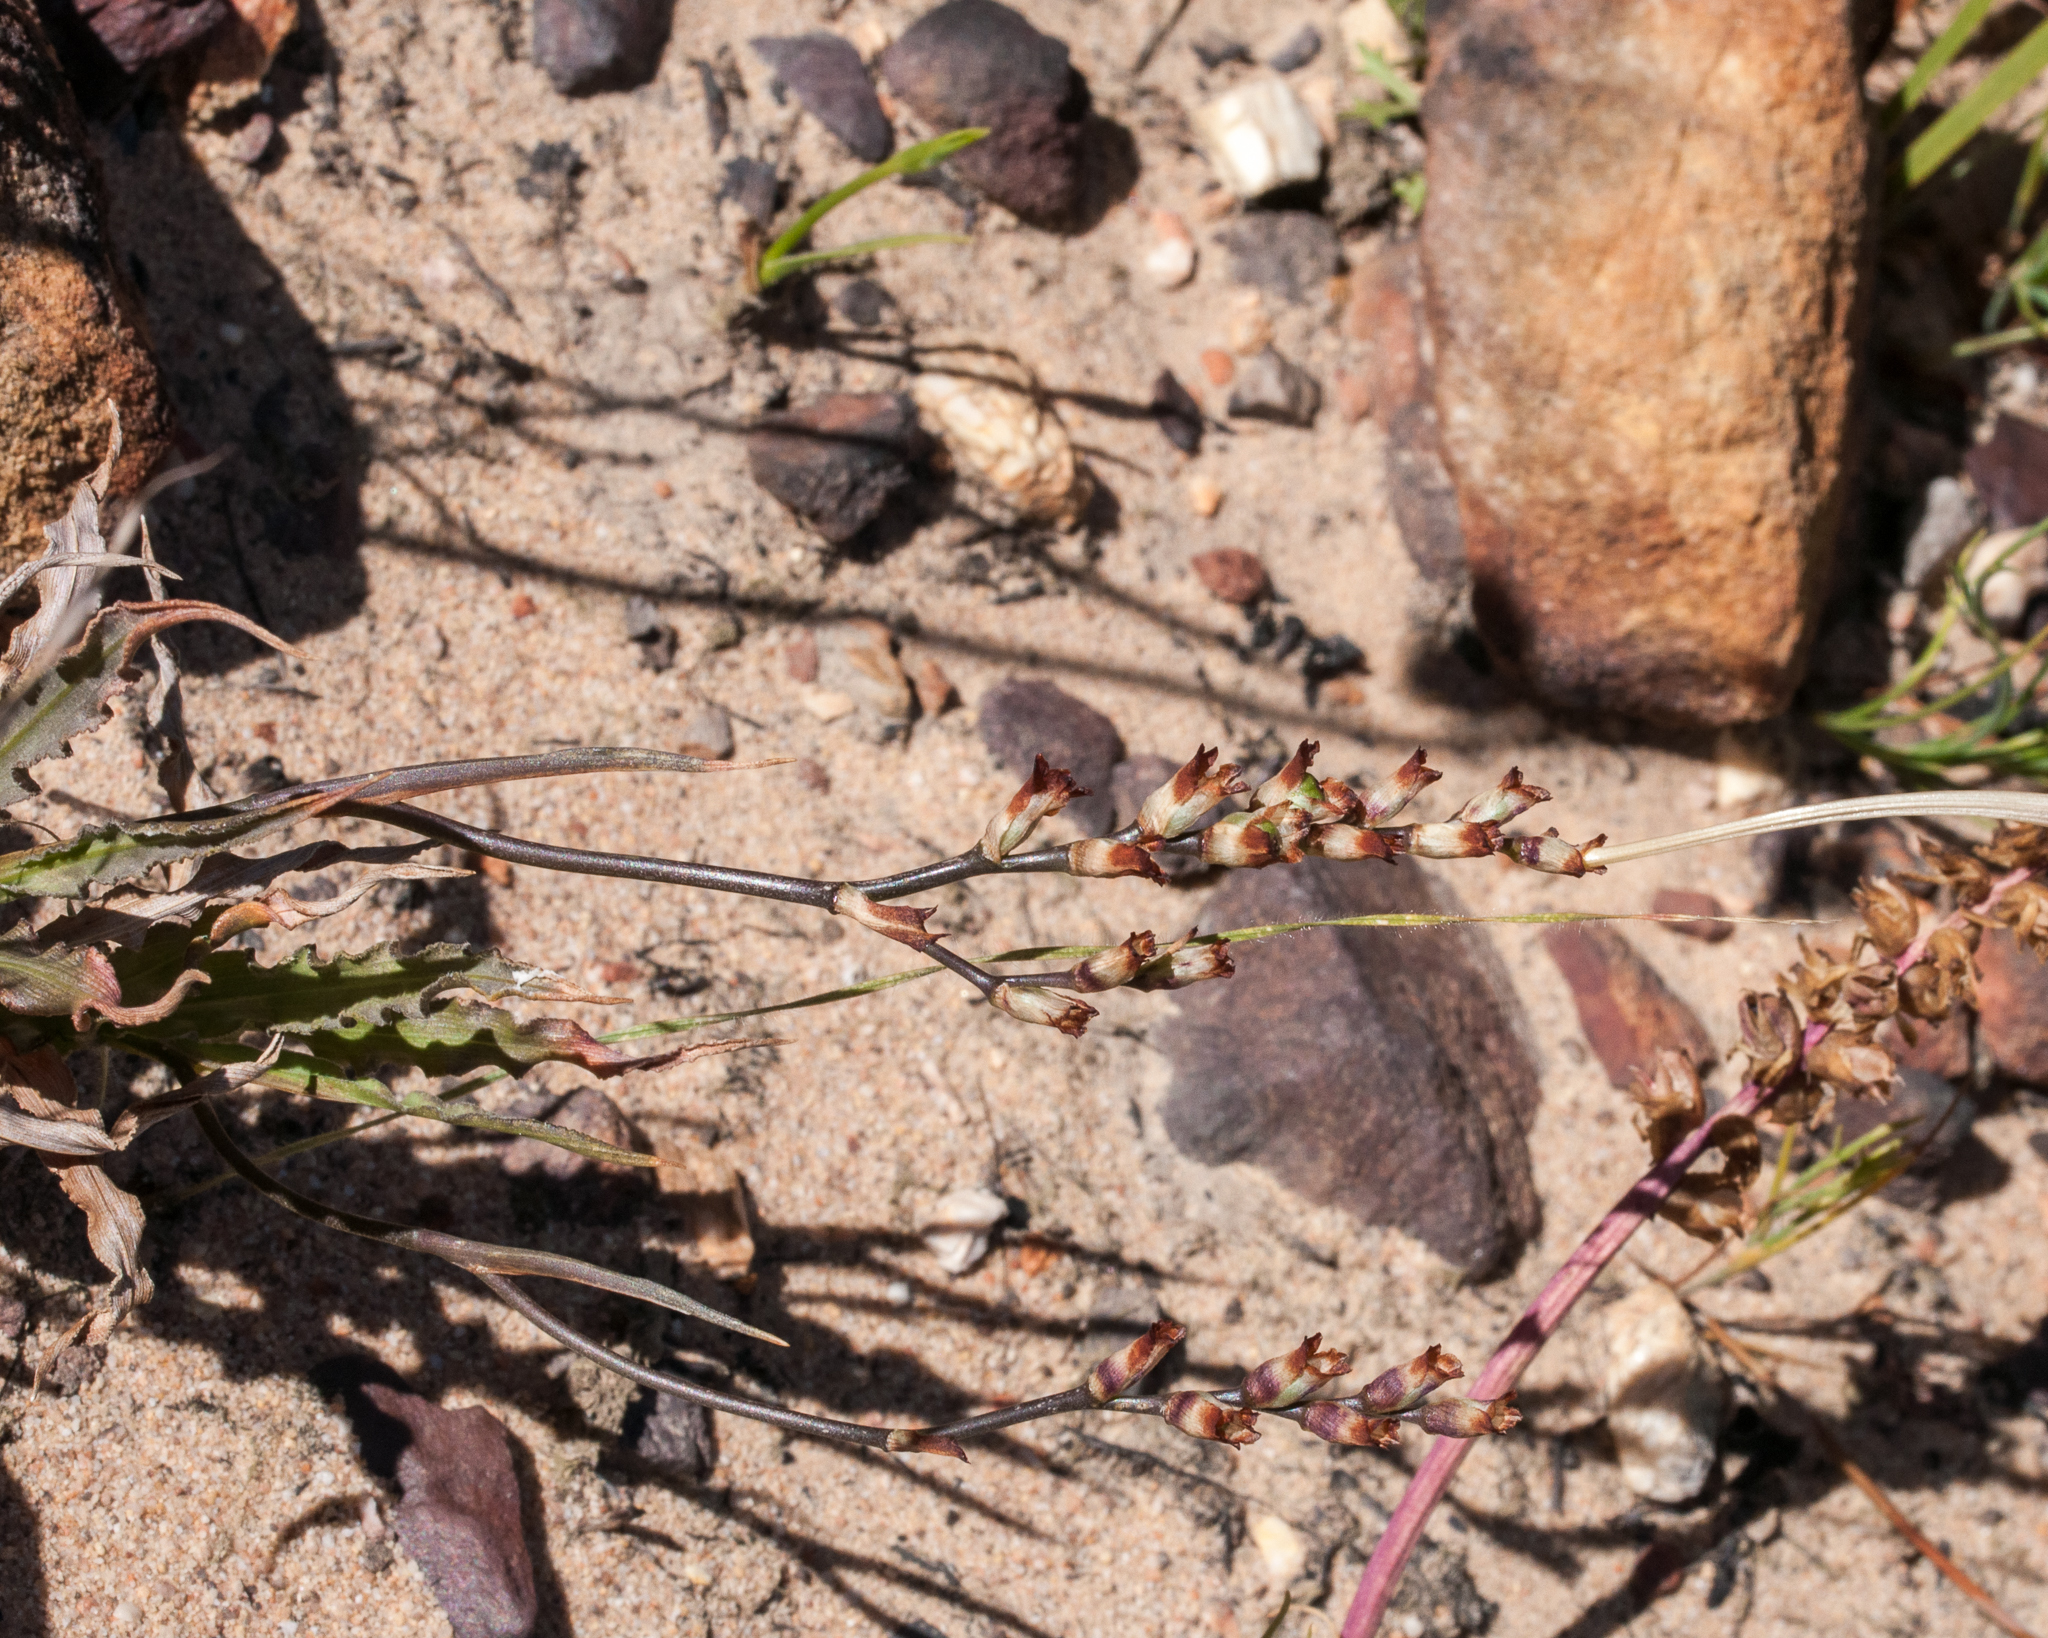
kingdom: Plantae
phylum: Tracheophyta
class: Liliopsida
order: Asparagales
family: Iridaceae
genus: Tritonia
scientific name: Tritonia undulata
